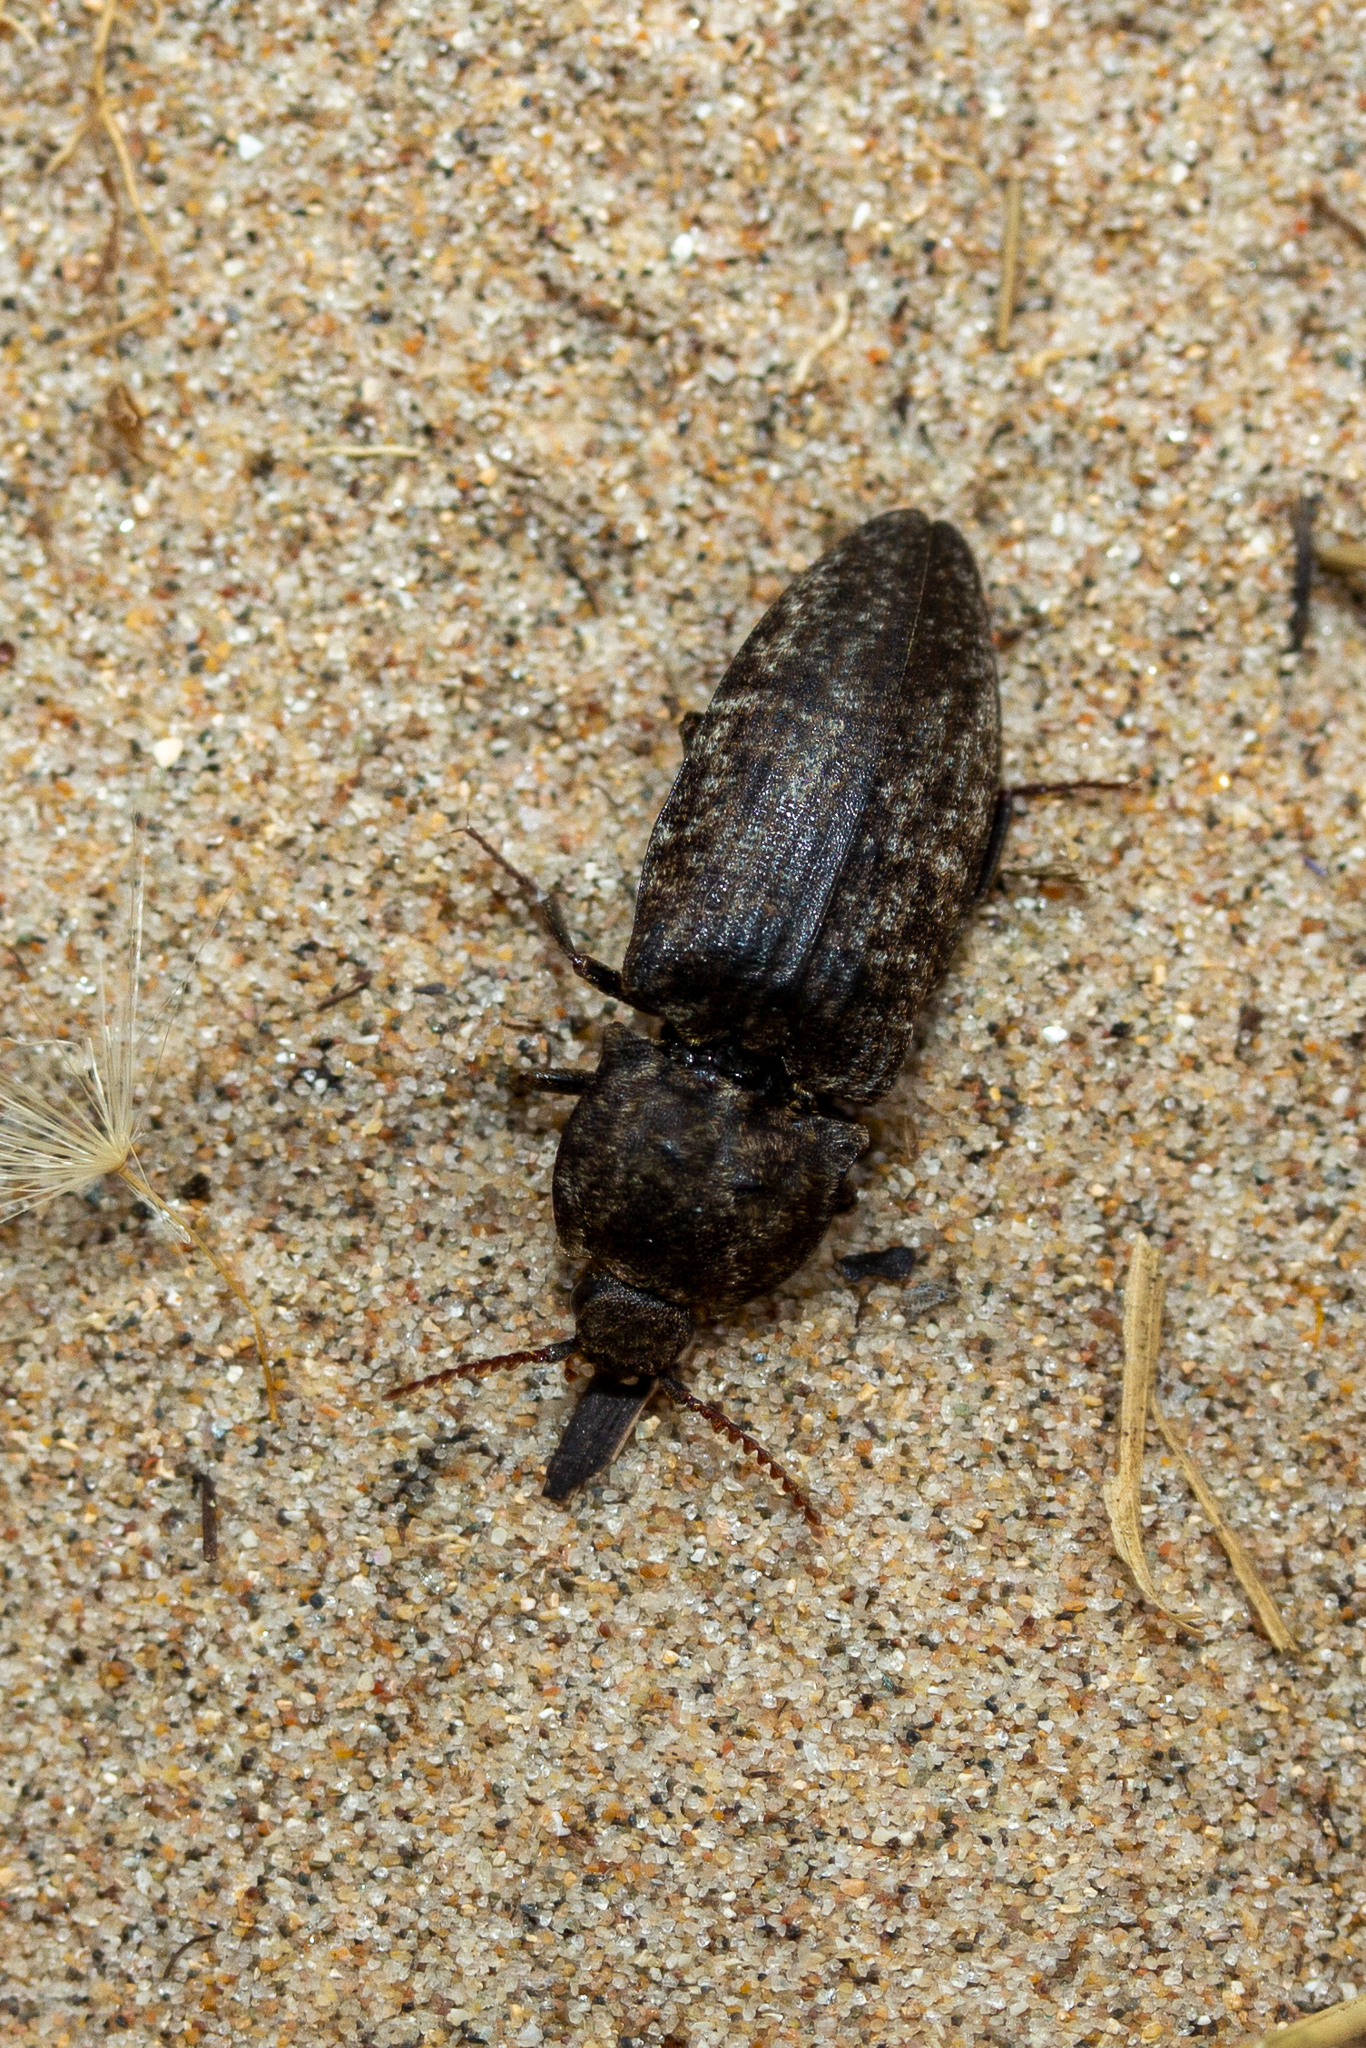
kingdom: Animalia
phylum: Arthropoda
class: Insecta
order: Coleoptera
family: Elateridae
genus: Agrypnus
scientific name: Agrypnus murinus
